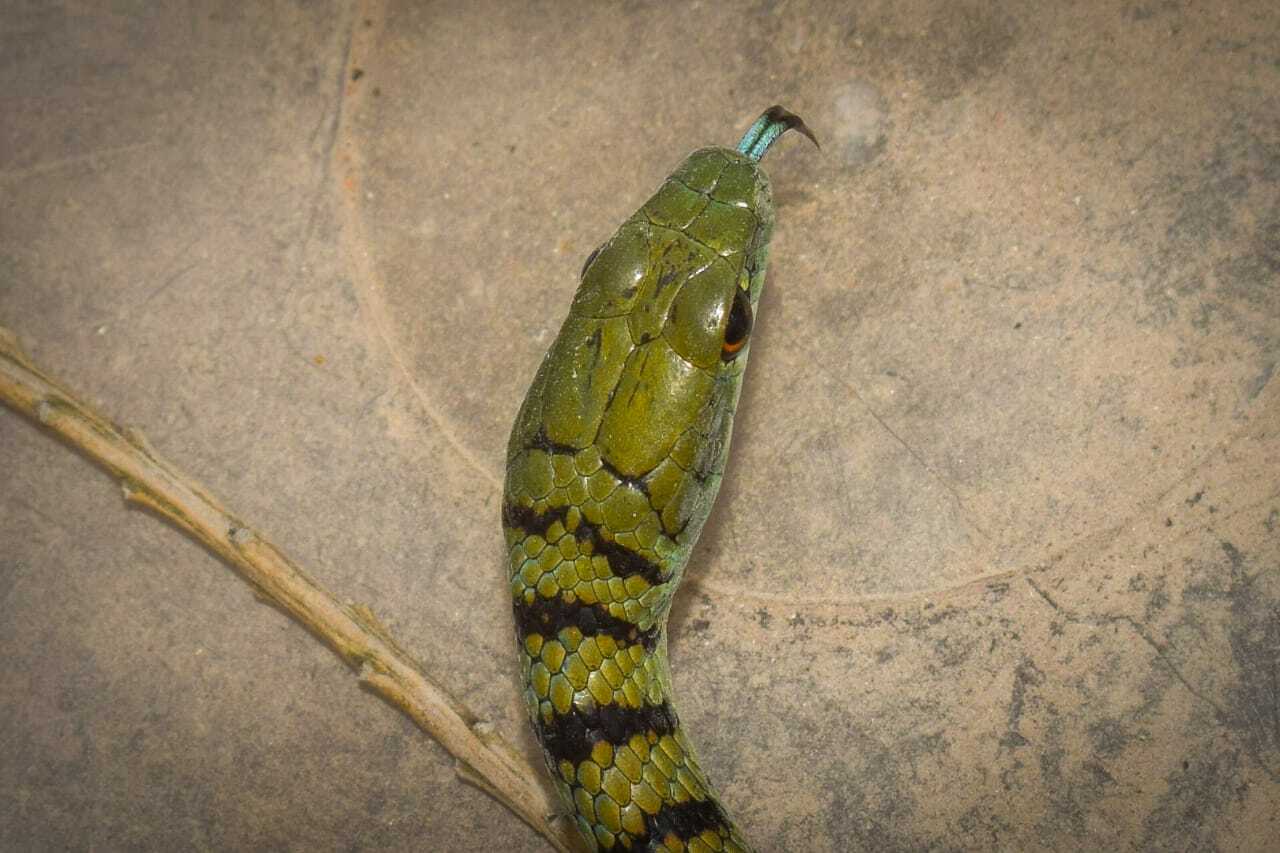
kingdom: Animalia
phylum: Chordata
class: Squamata
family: Colubridae
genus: Philothamnus
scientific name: Philothamnus semivariegatus
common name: Spotted bush snake
